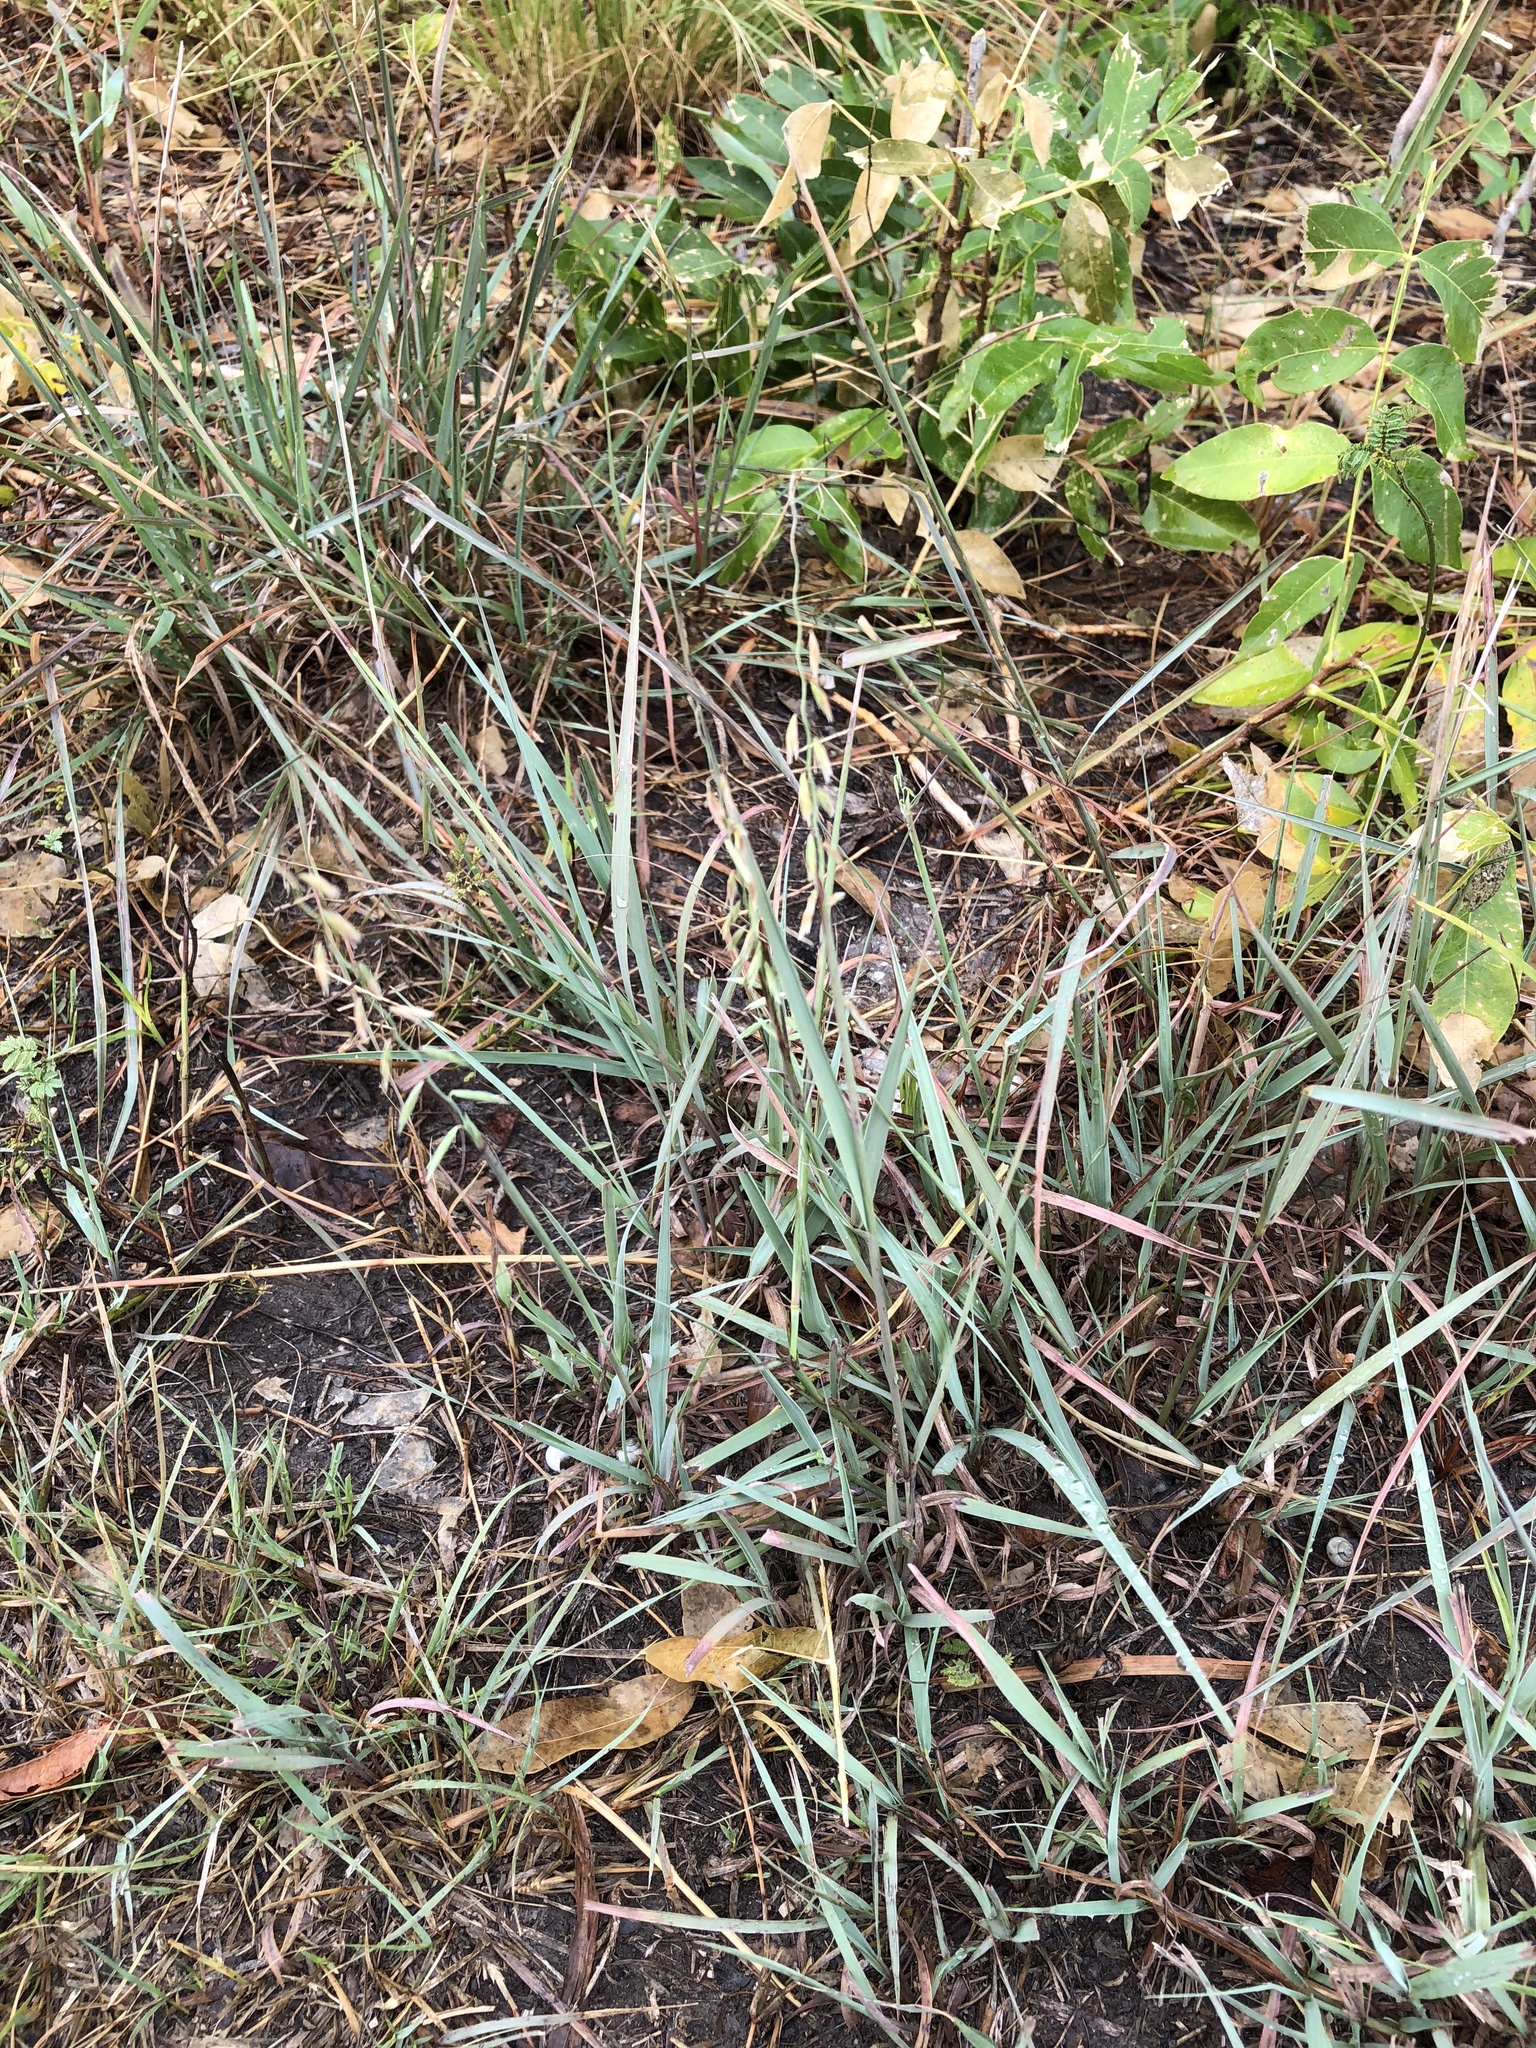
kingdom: Plantae
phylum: Tracheophyta
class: Liliopsida
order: Poales
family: Poaceae
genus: Bouteloua
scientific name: Bouteloua curtipendula
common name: Side-oats grama
